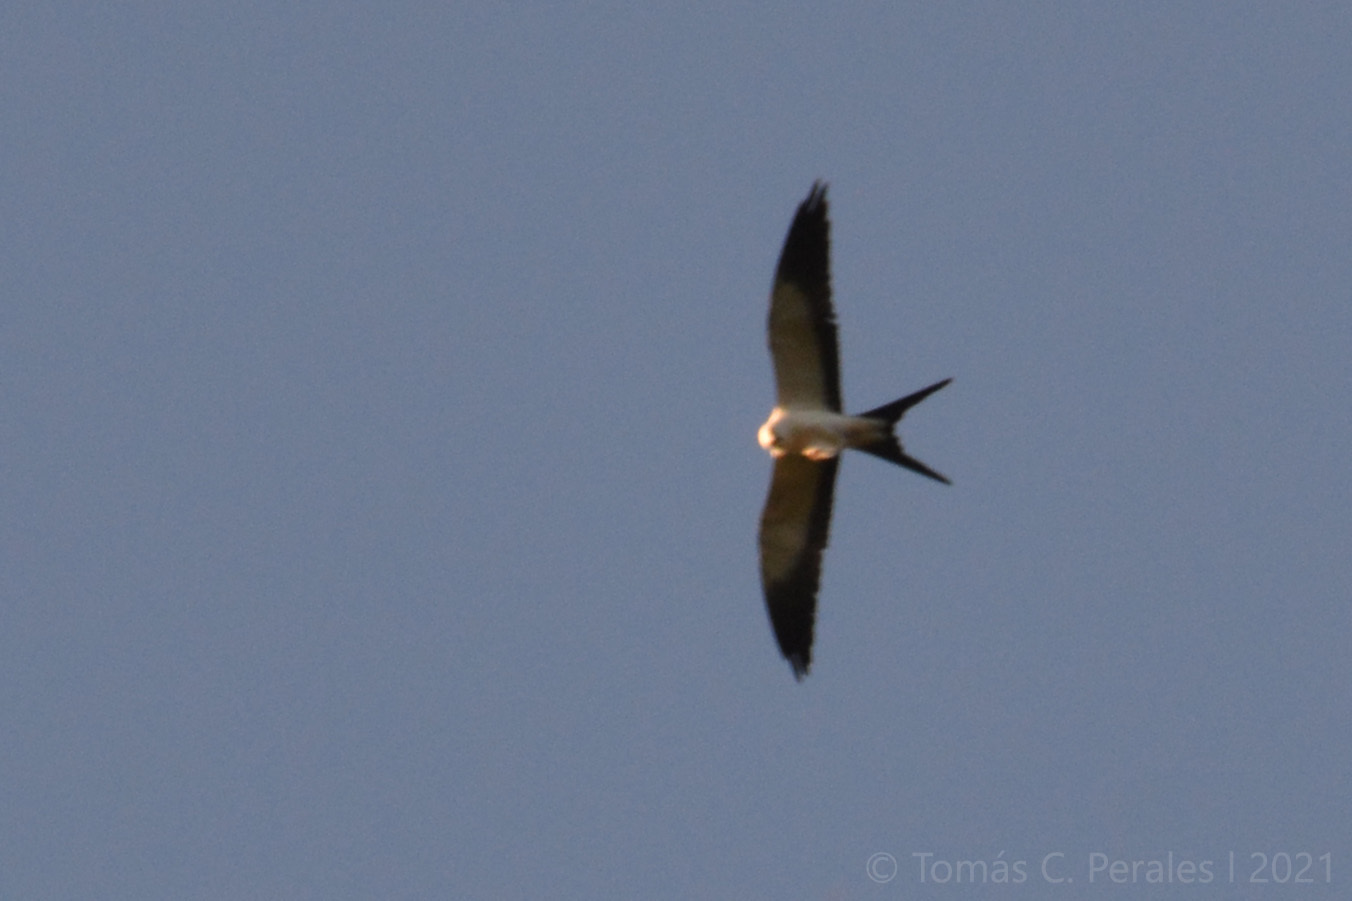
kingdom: Animalia
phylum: Chordata
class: Aves
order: Accipitriformes
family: Accipitridae
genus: Elanoides
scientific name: Elanoides forficatus
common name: Swallow-tailed kite
